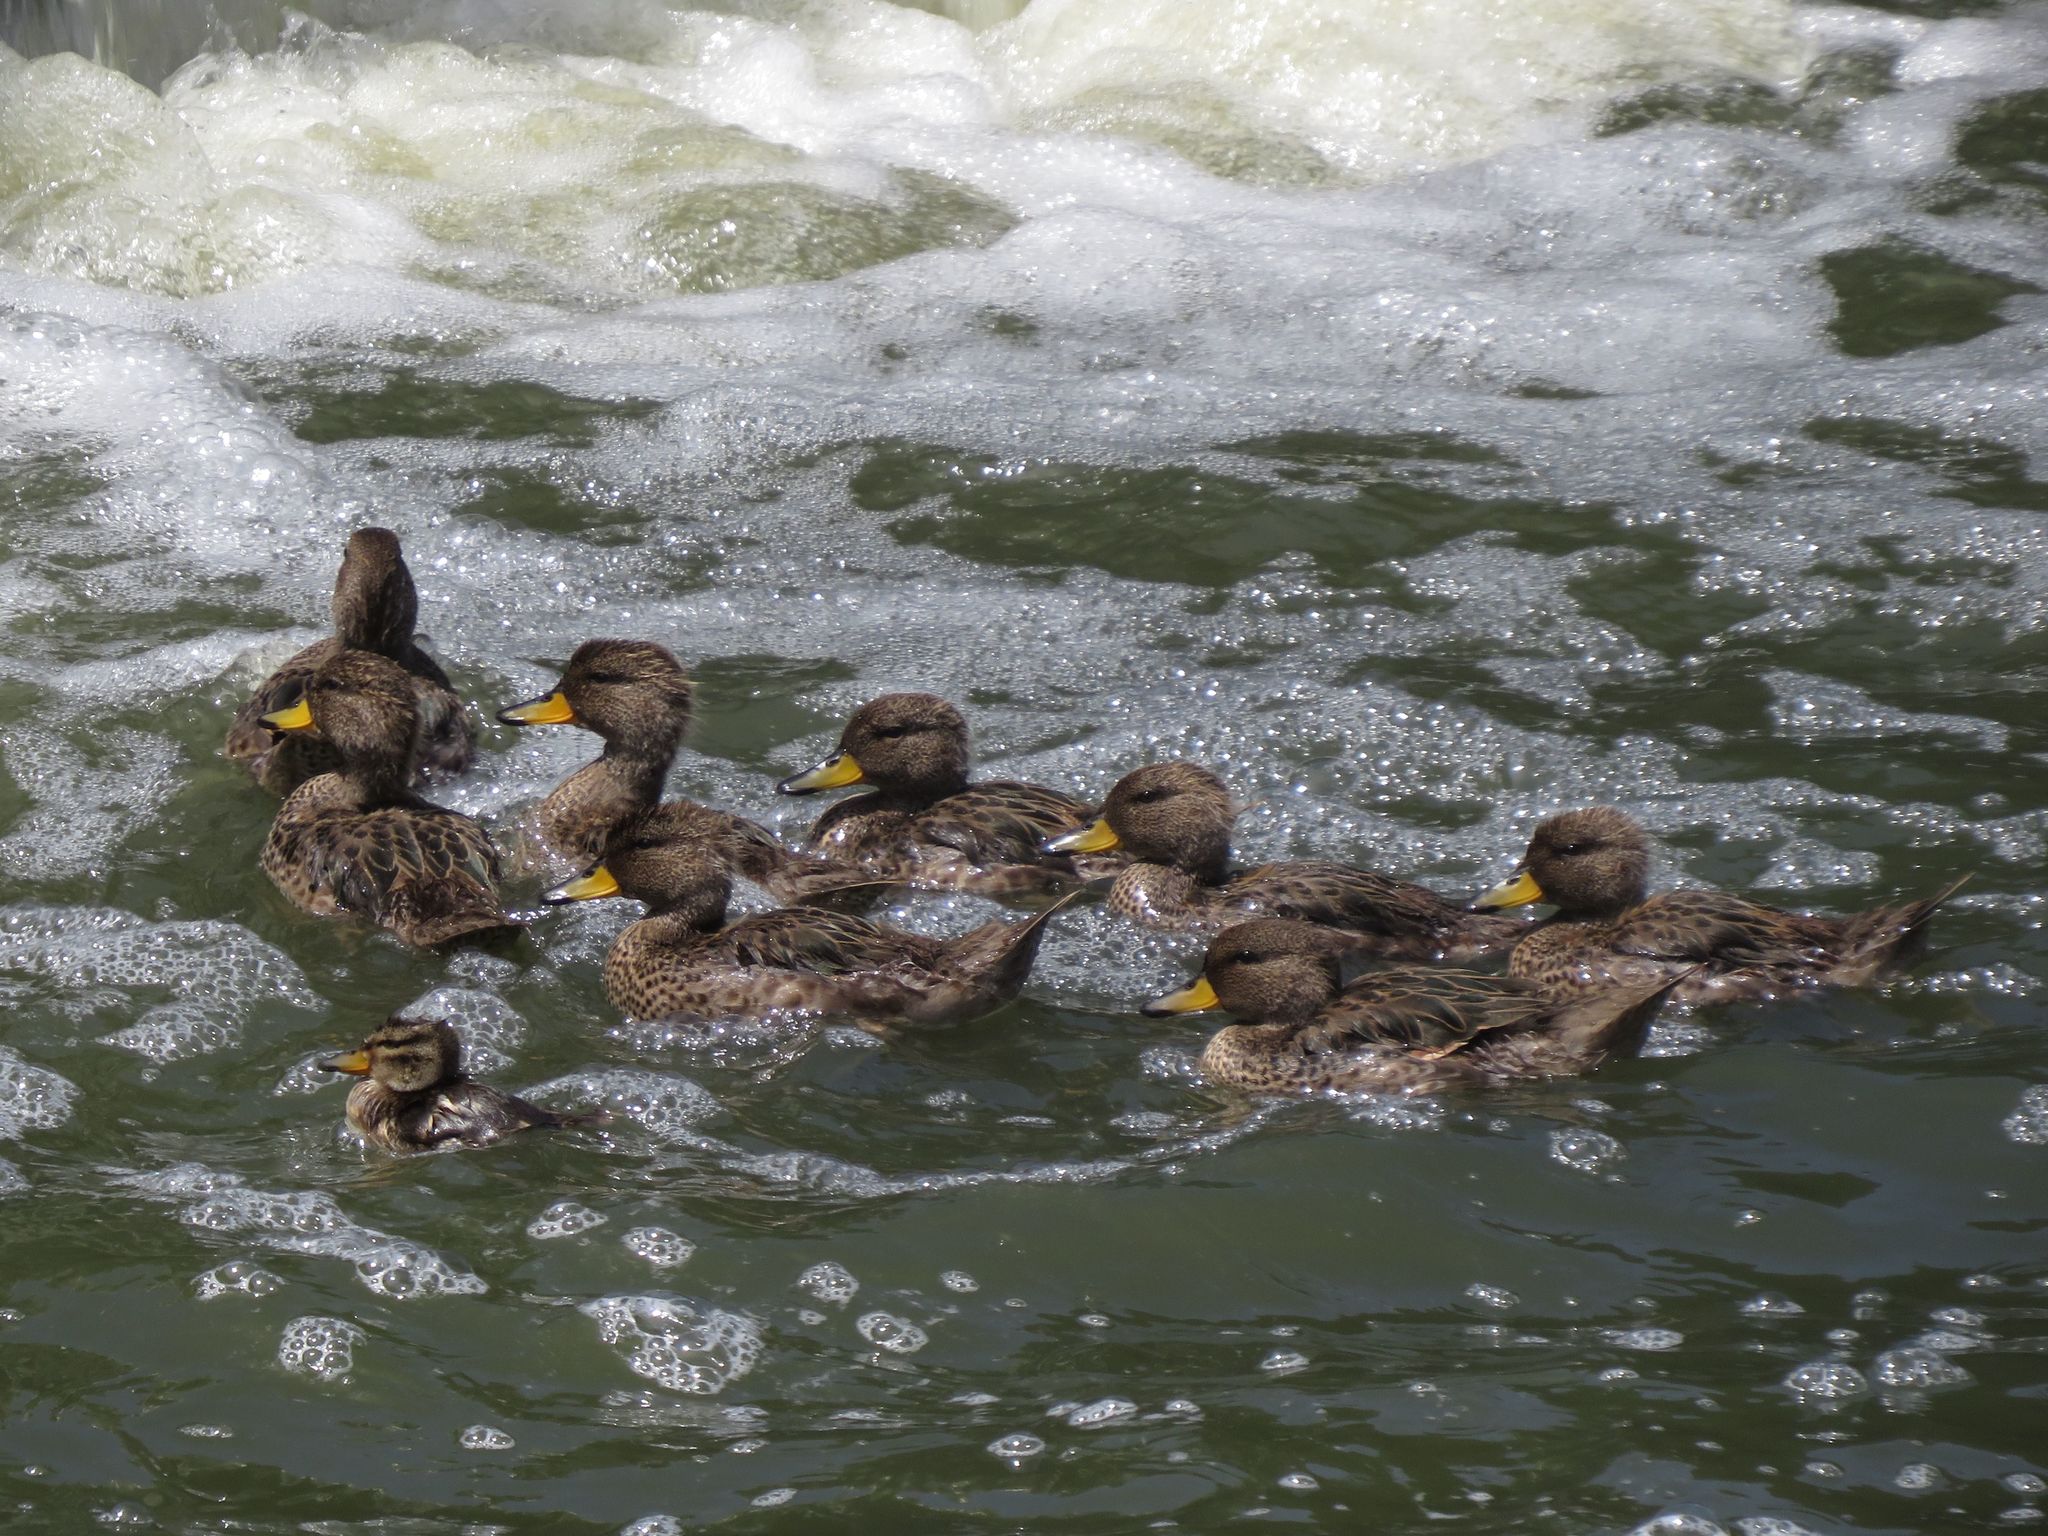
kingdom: Animalia
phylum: Chordata
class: Aves
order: Anseriformes
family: Anatidae
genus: Anas
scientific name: Anas flavirostris
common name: Yellow-billed teal
